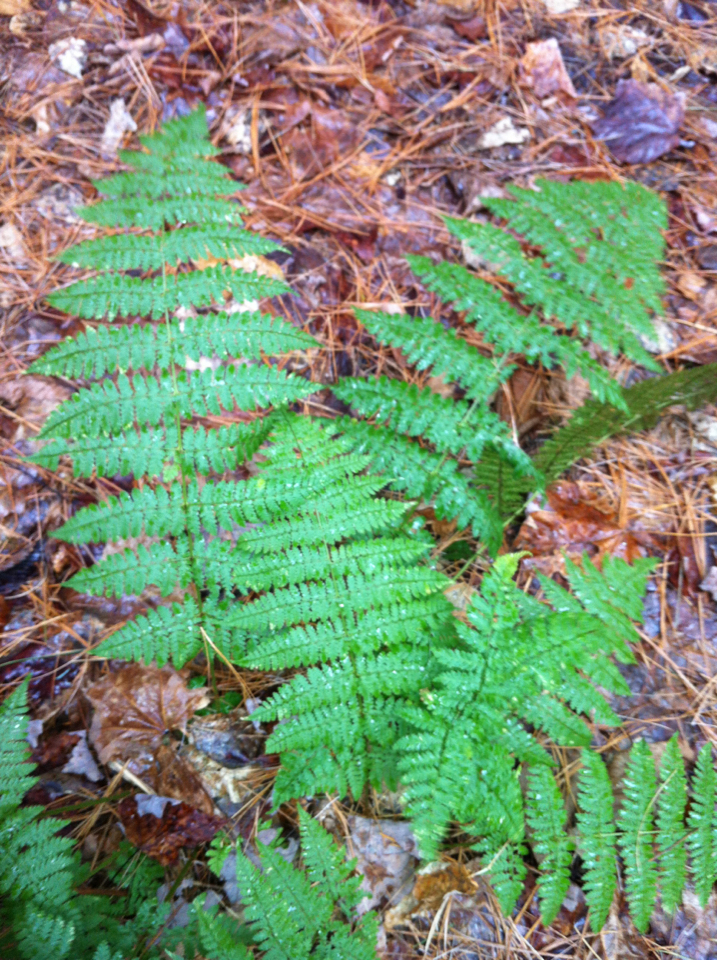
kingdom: Plantae
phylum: Tracheophyta
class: Polypodiopsida
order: Polypodiales
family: Dryopteridaceae
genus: Dryopteris
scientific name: Dryopteris intermedia
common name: Evergreen wood fern
